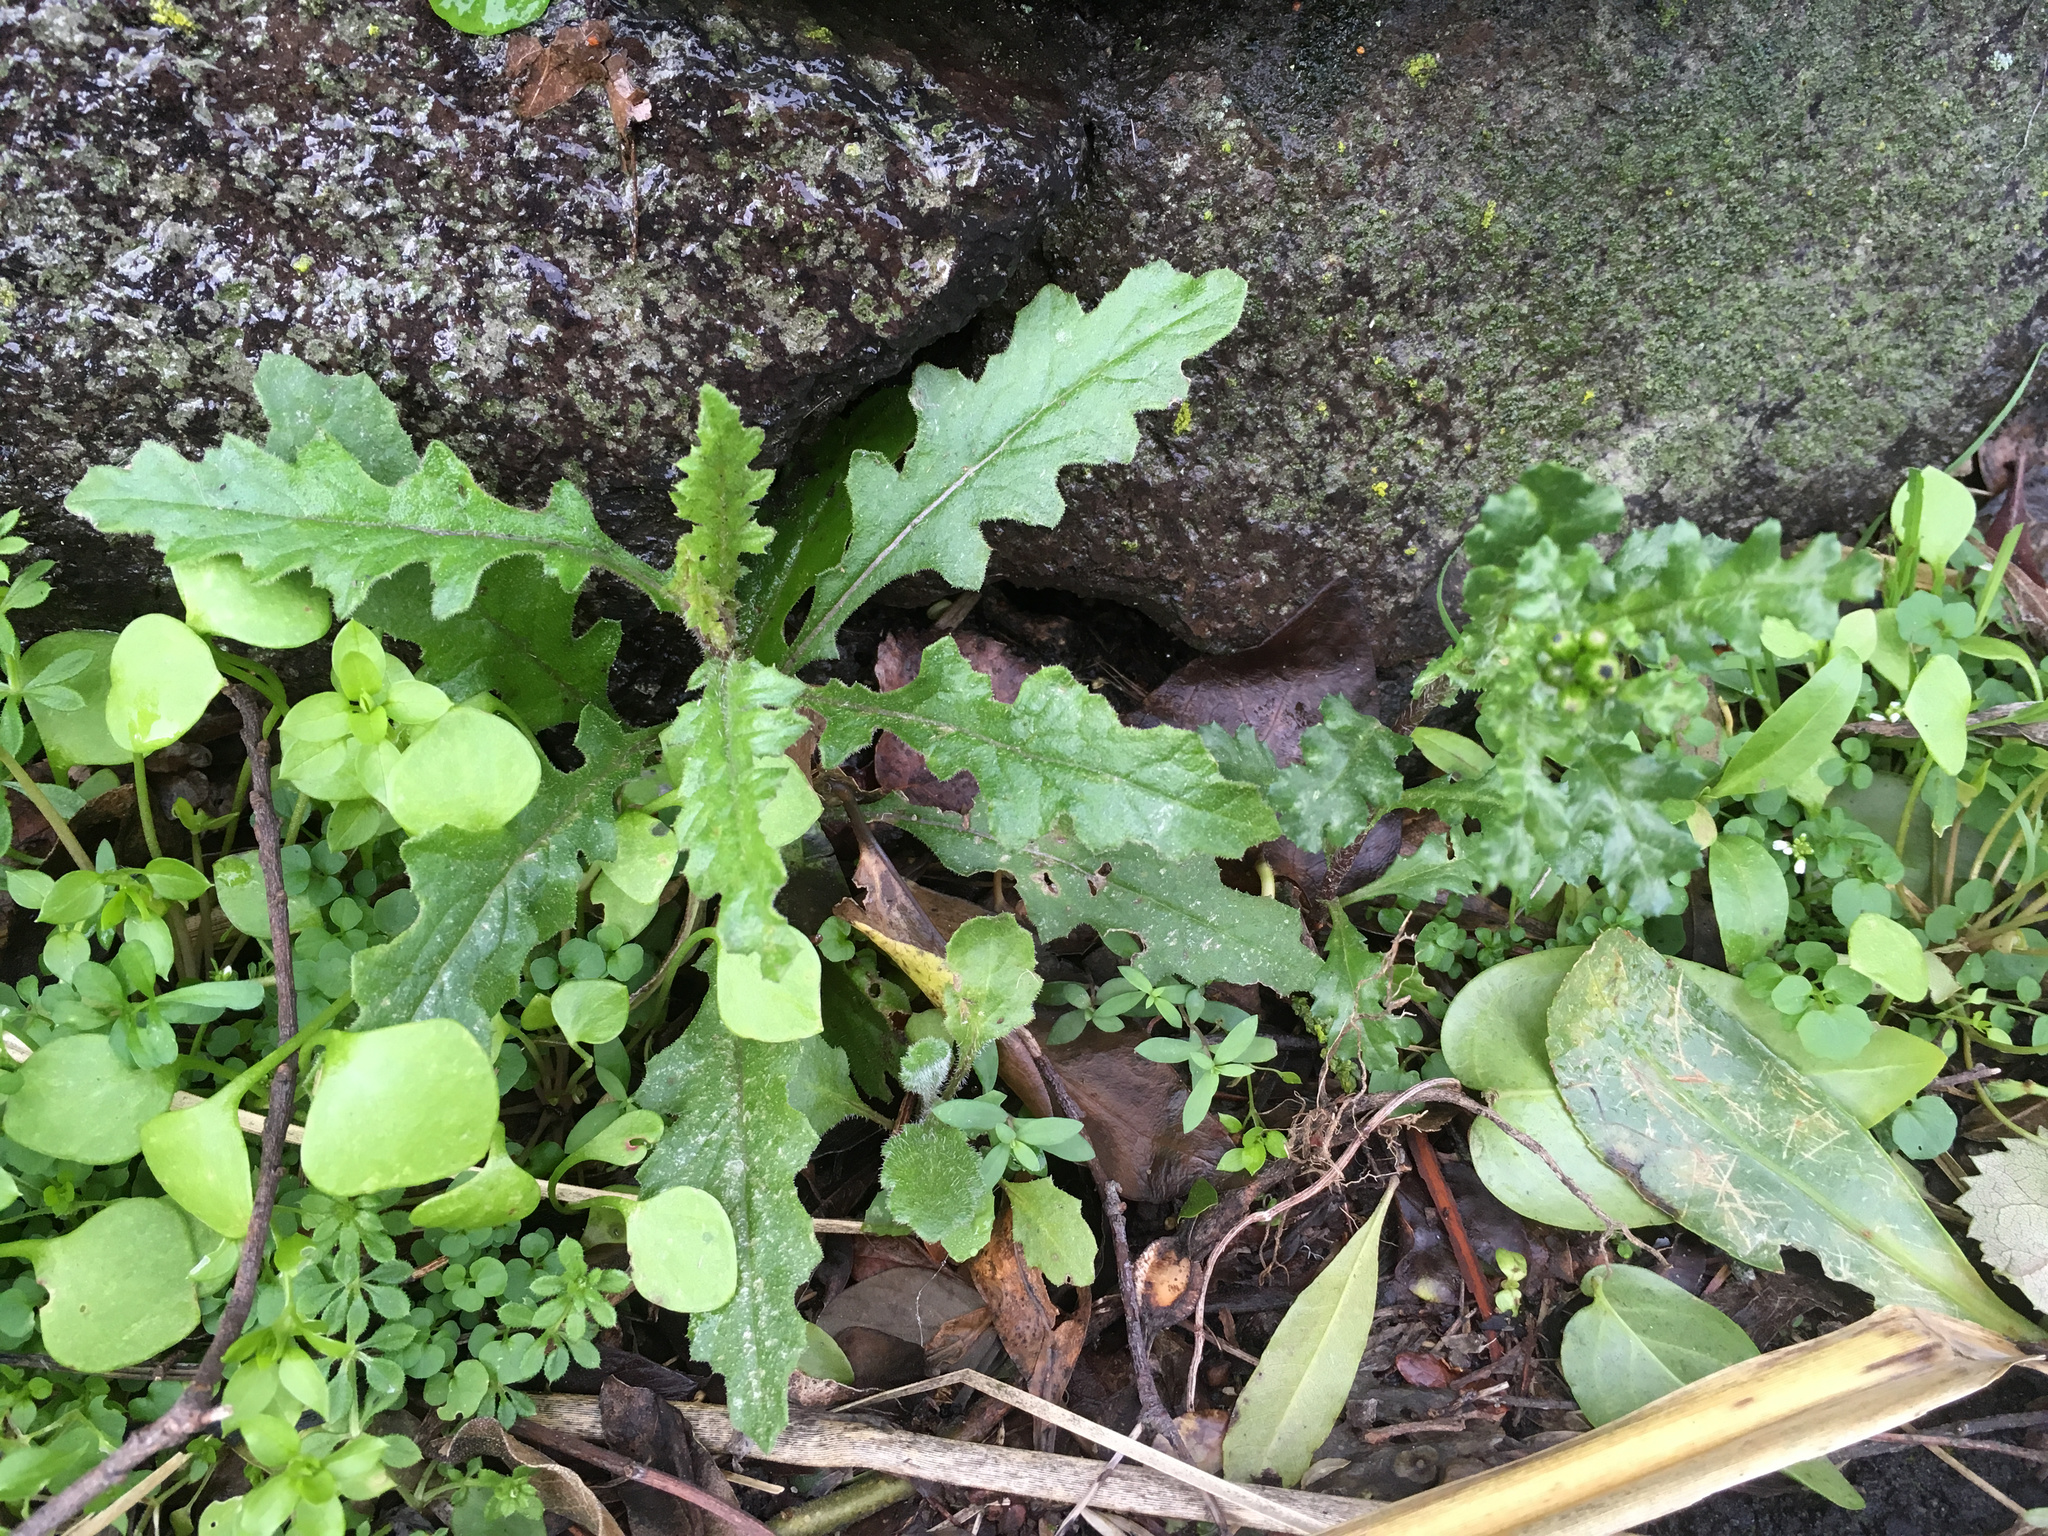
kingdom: Plantae
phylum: Tracheophyta
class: Magnoliopsida
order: Asterales
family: Asteraceae
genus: Senecio
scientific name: Senecio hispidulus
